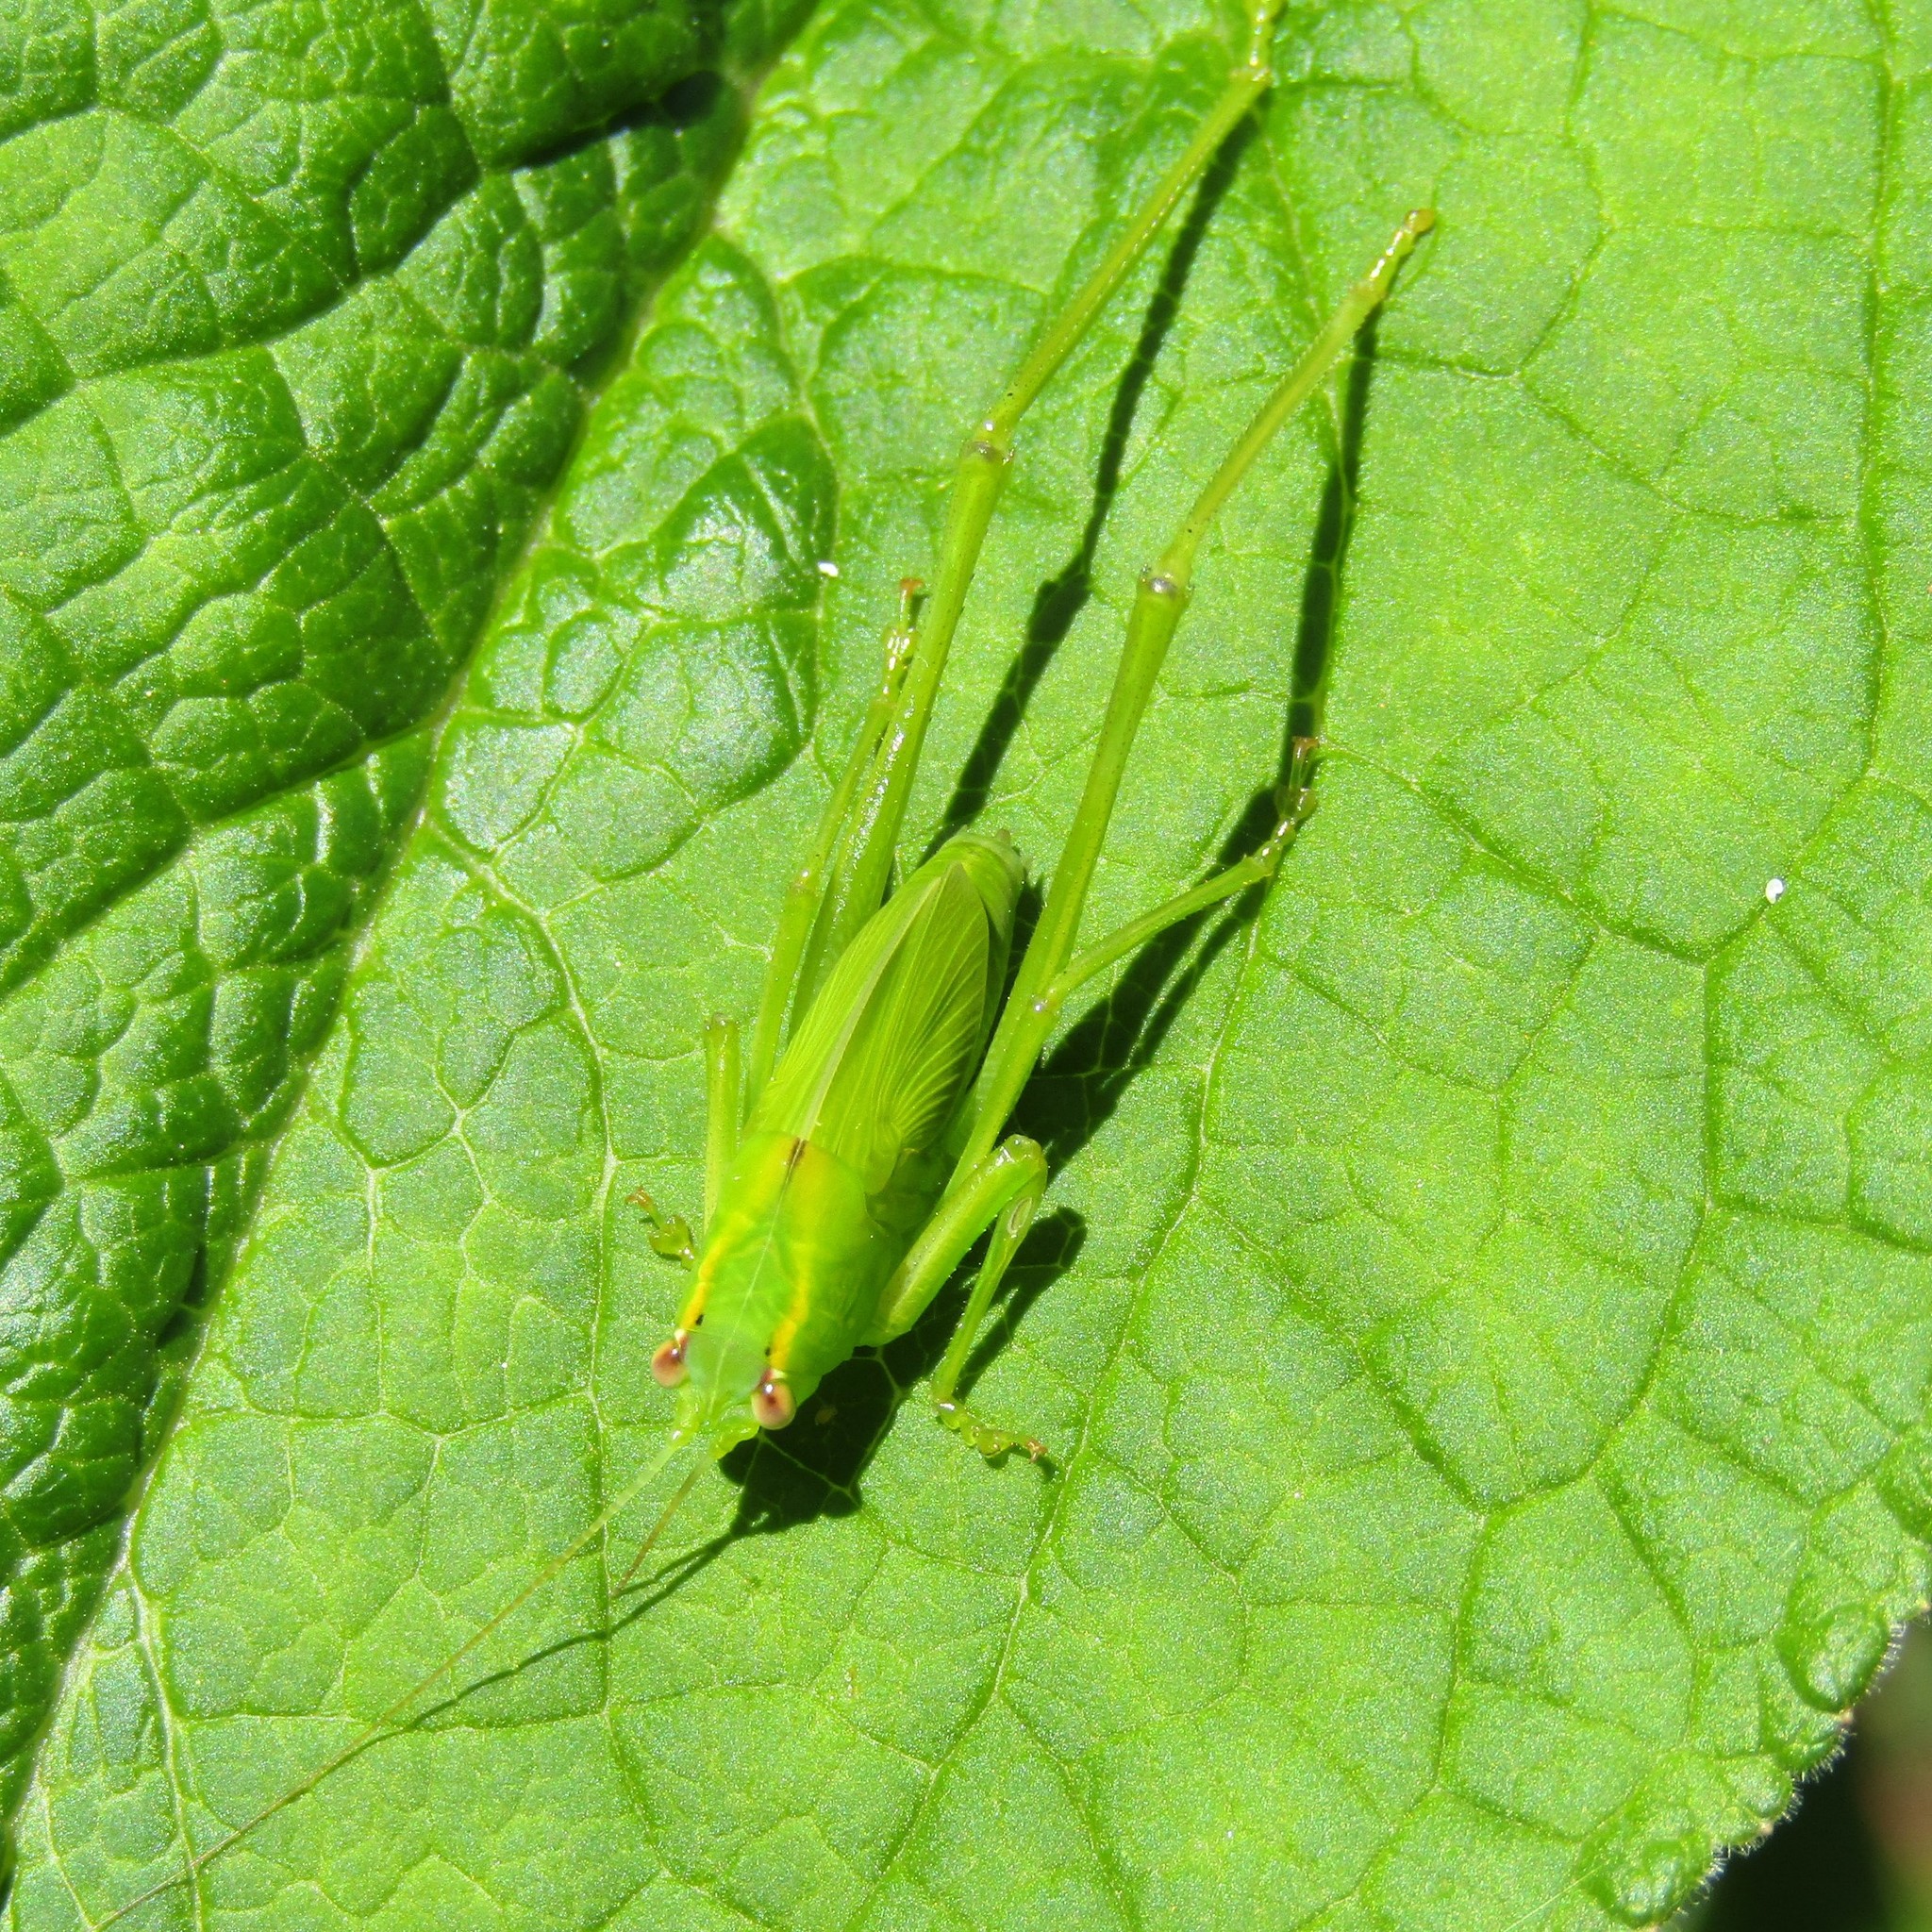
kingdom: Animalia
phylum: Arthropoda
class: Insecta
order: Orthoptera
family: Tettigoniidae
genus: Caedicia
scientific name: Caedicia simplex
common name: Common garden katydid
